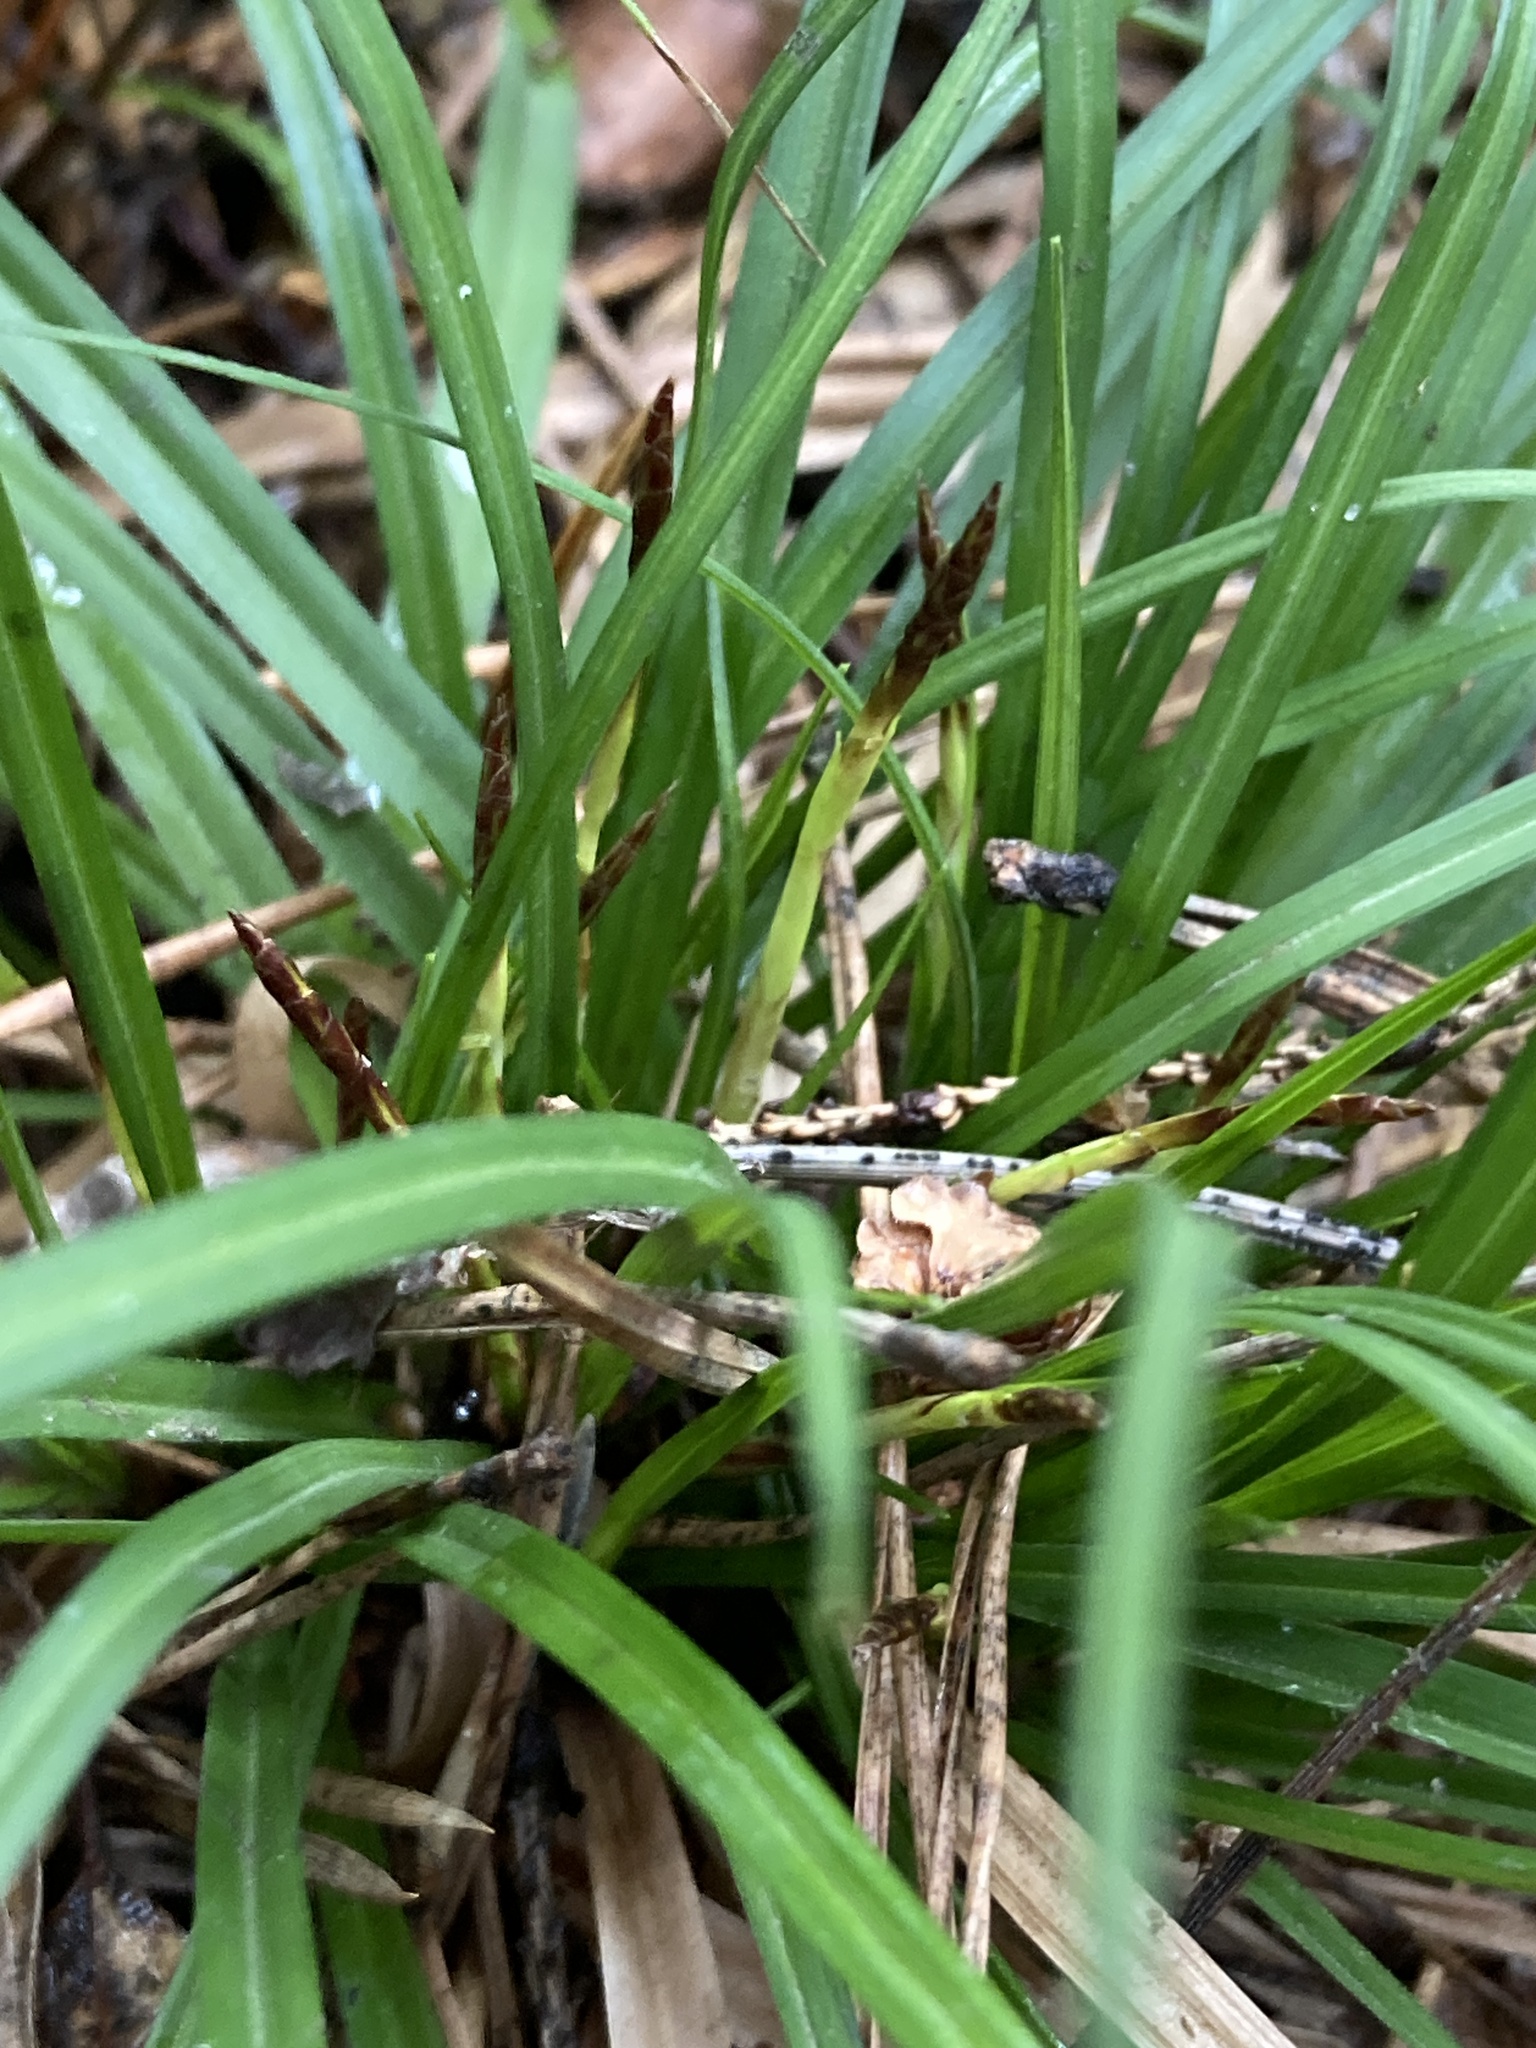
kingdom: Plantae
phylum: Tracheophyta
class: Liliopsida
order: Poales
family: Cyperaceae
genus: Carex
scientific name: Carex digitata
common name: Fingered sedge
